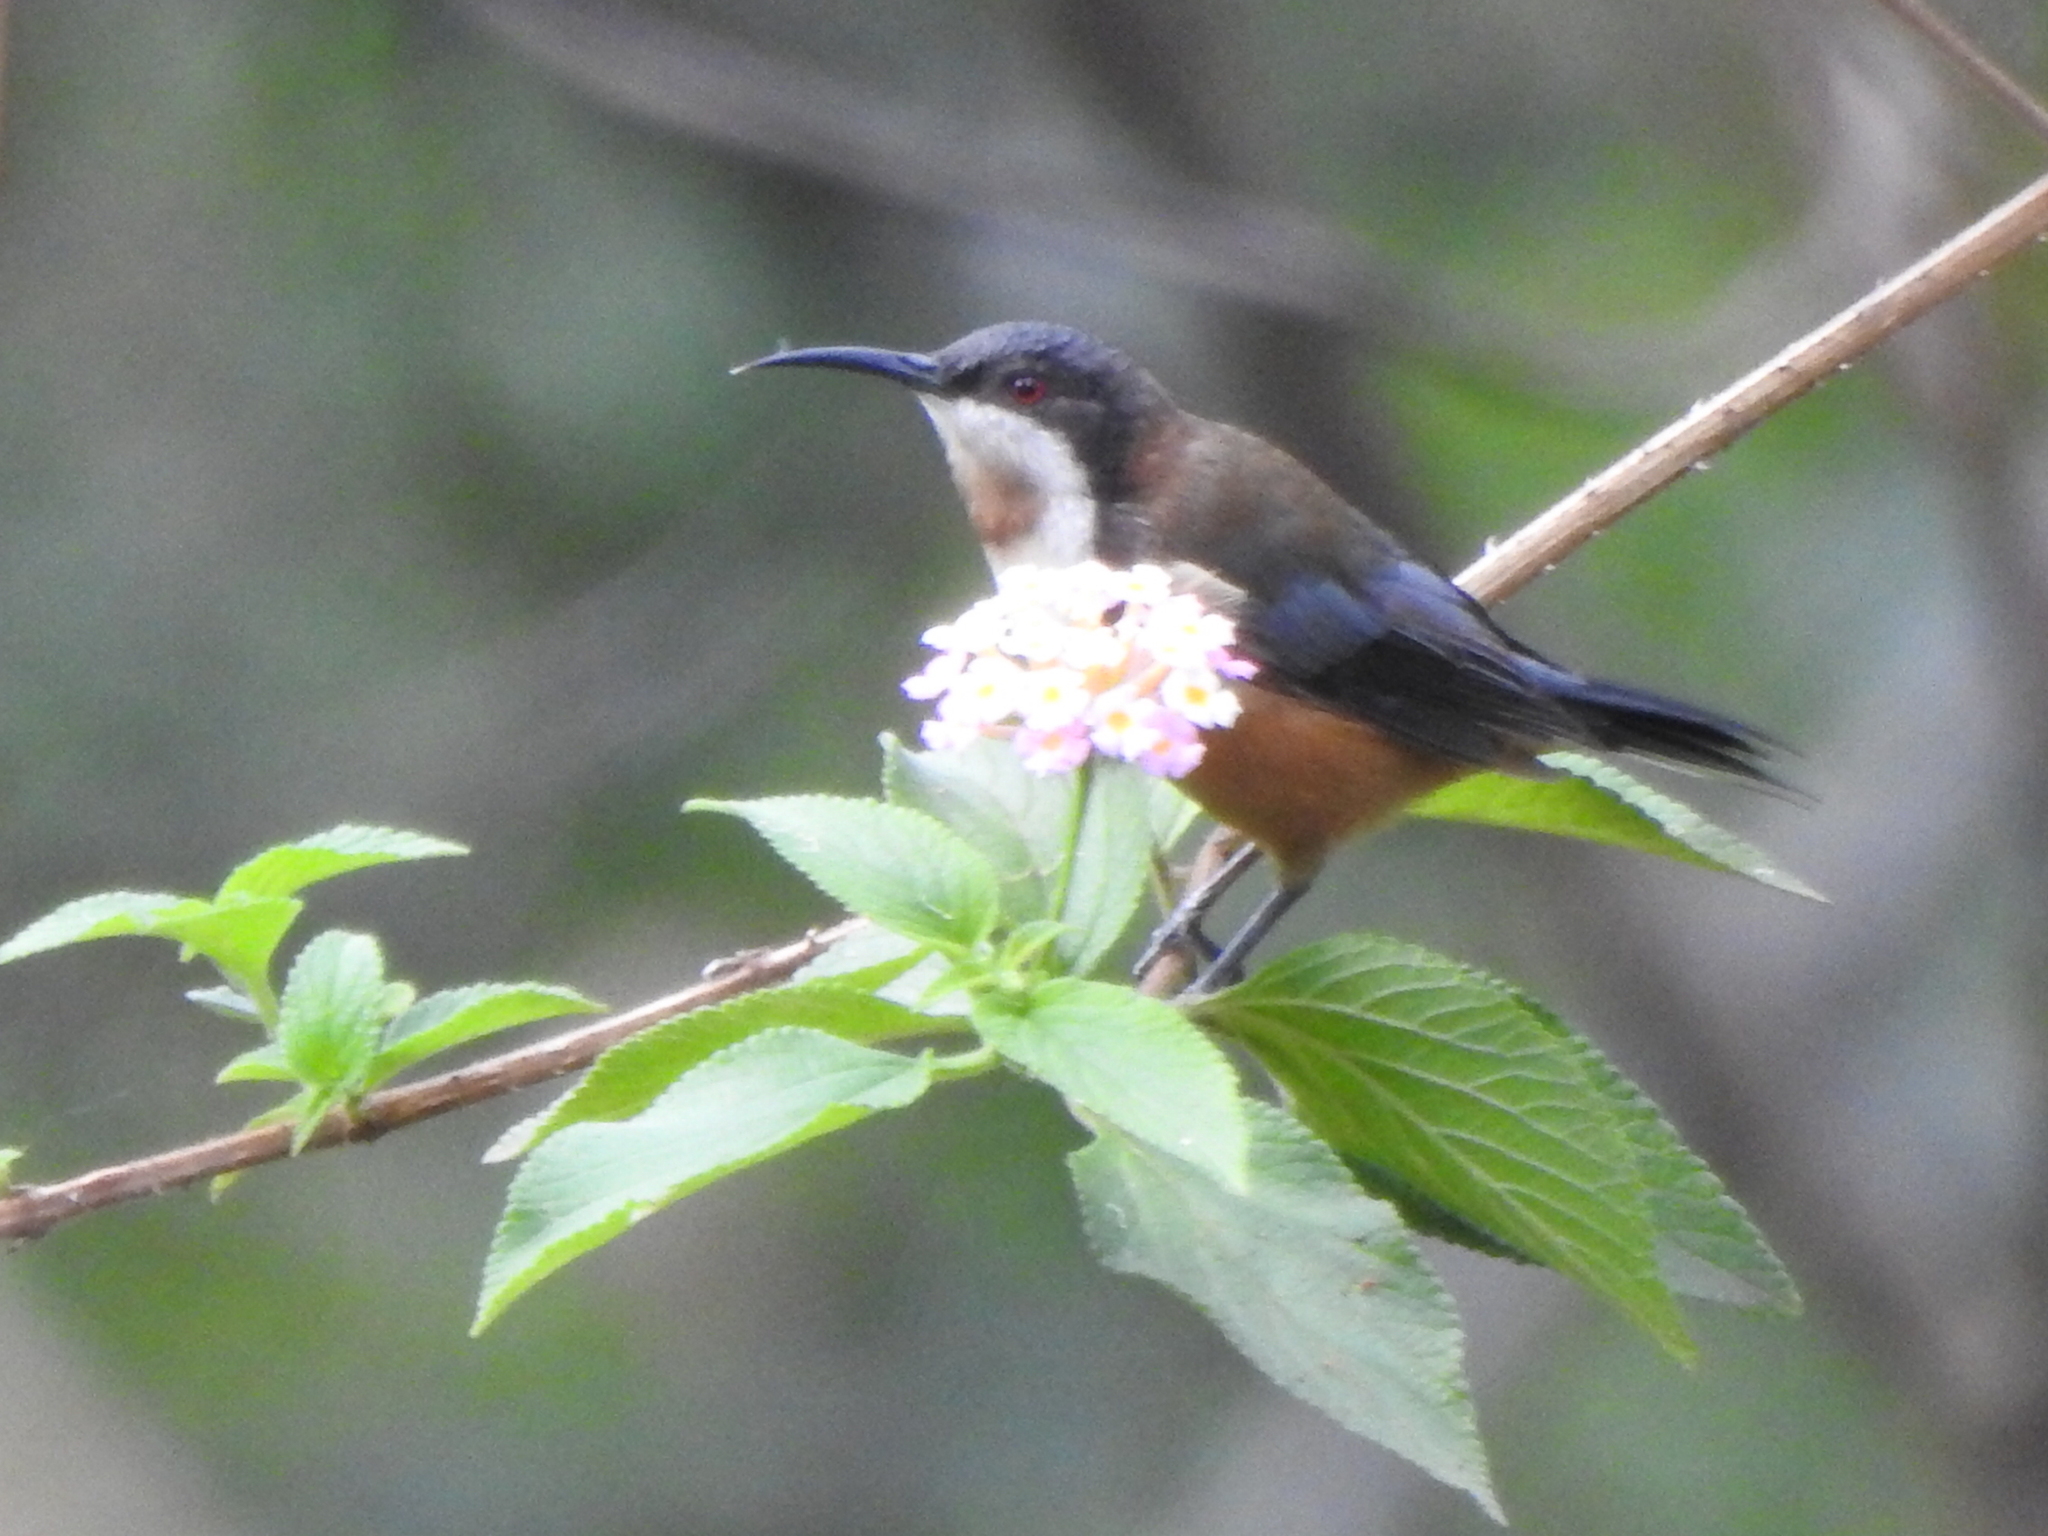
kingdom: Animalia
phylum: Chordata
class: Aves
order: Passeriformes
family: Meliphagidae
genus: Acanthorhynchus
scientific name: Acanthorhynchus tenuirostris
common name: Eastern spinebill
